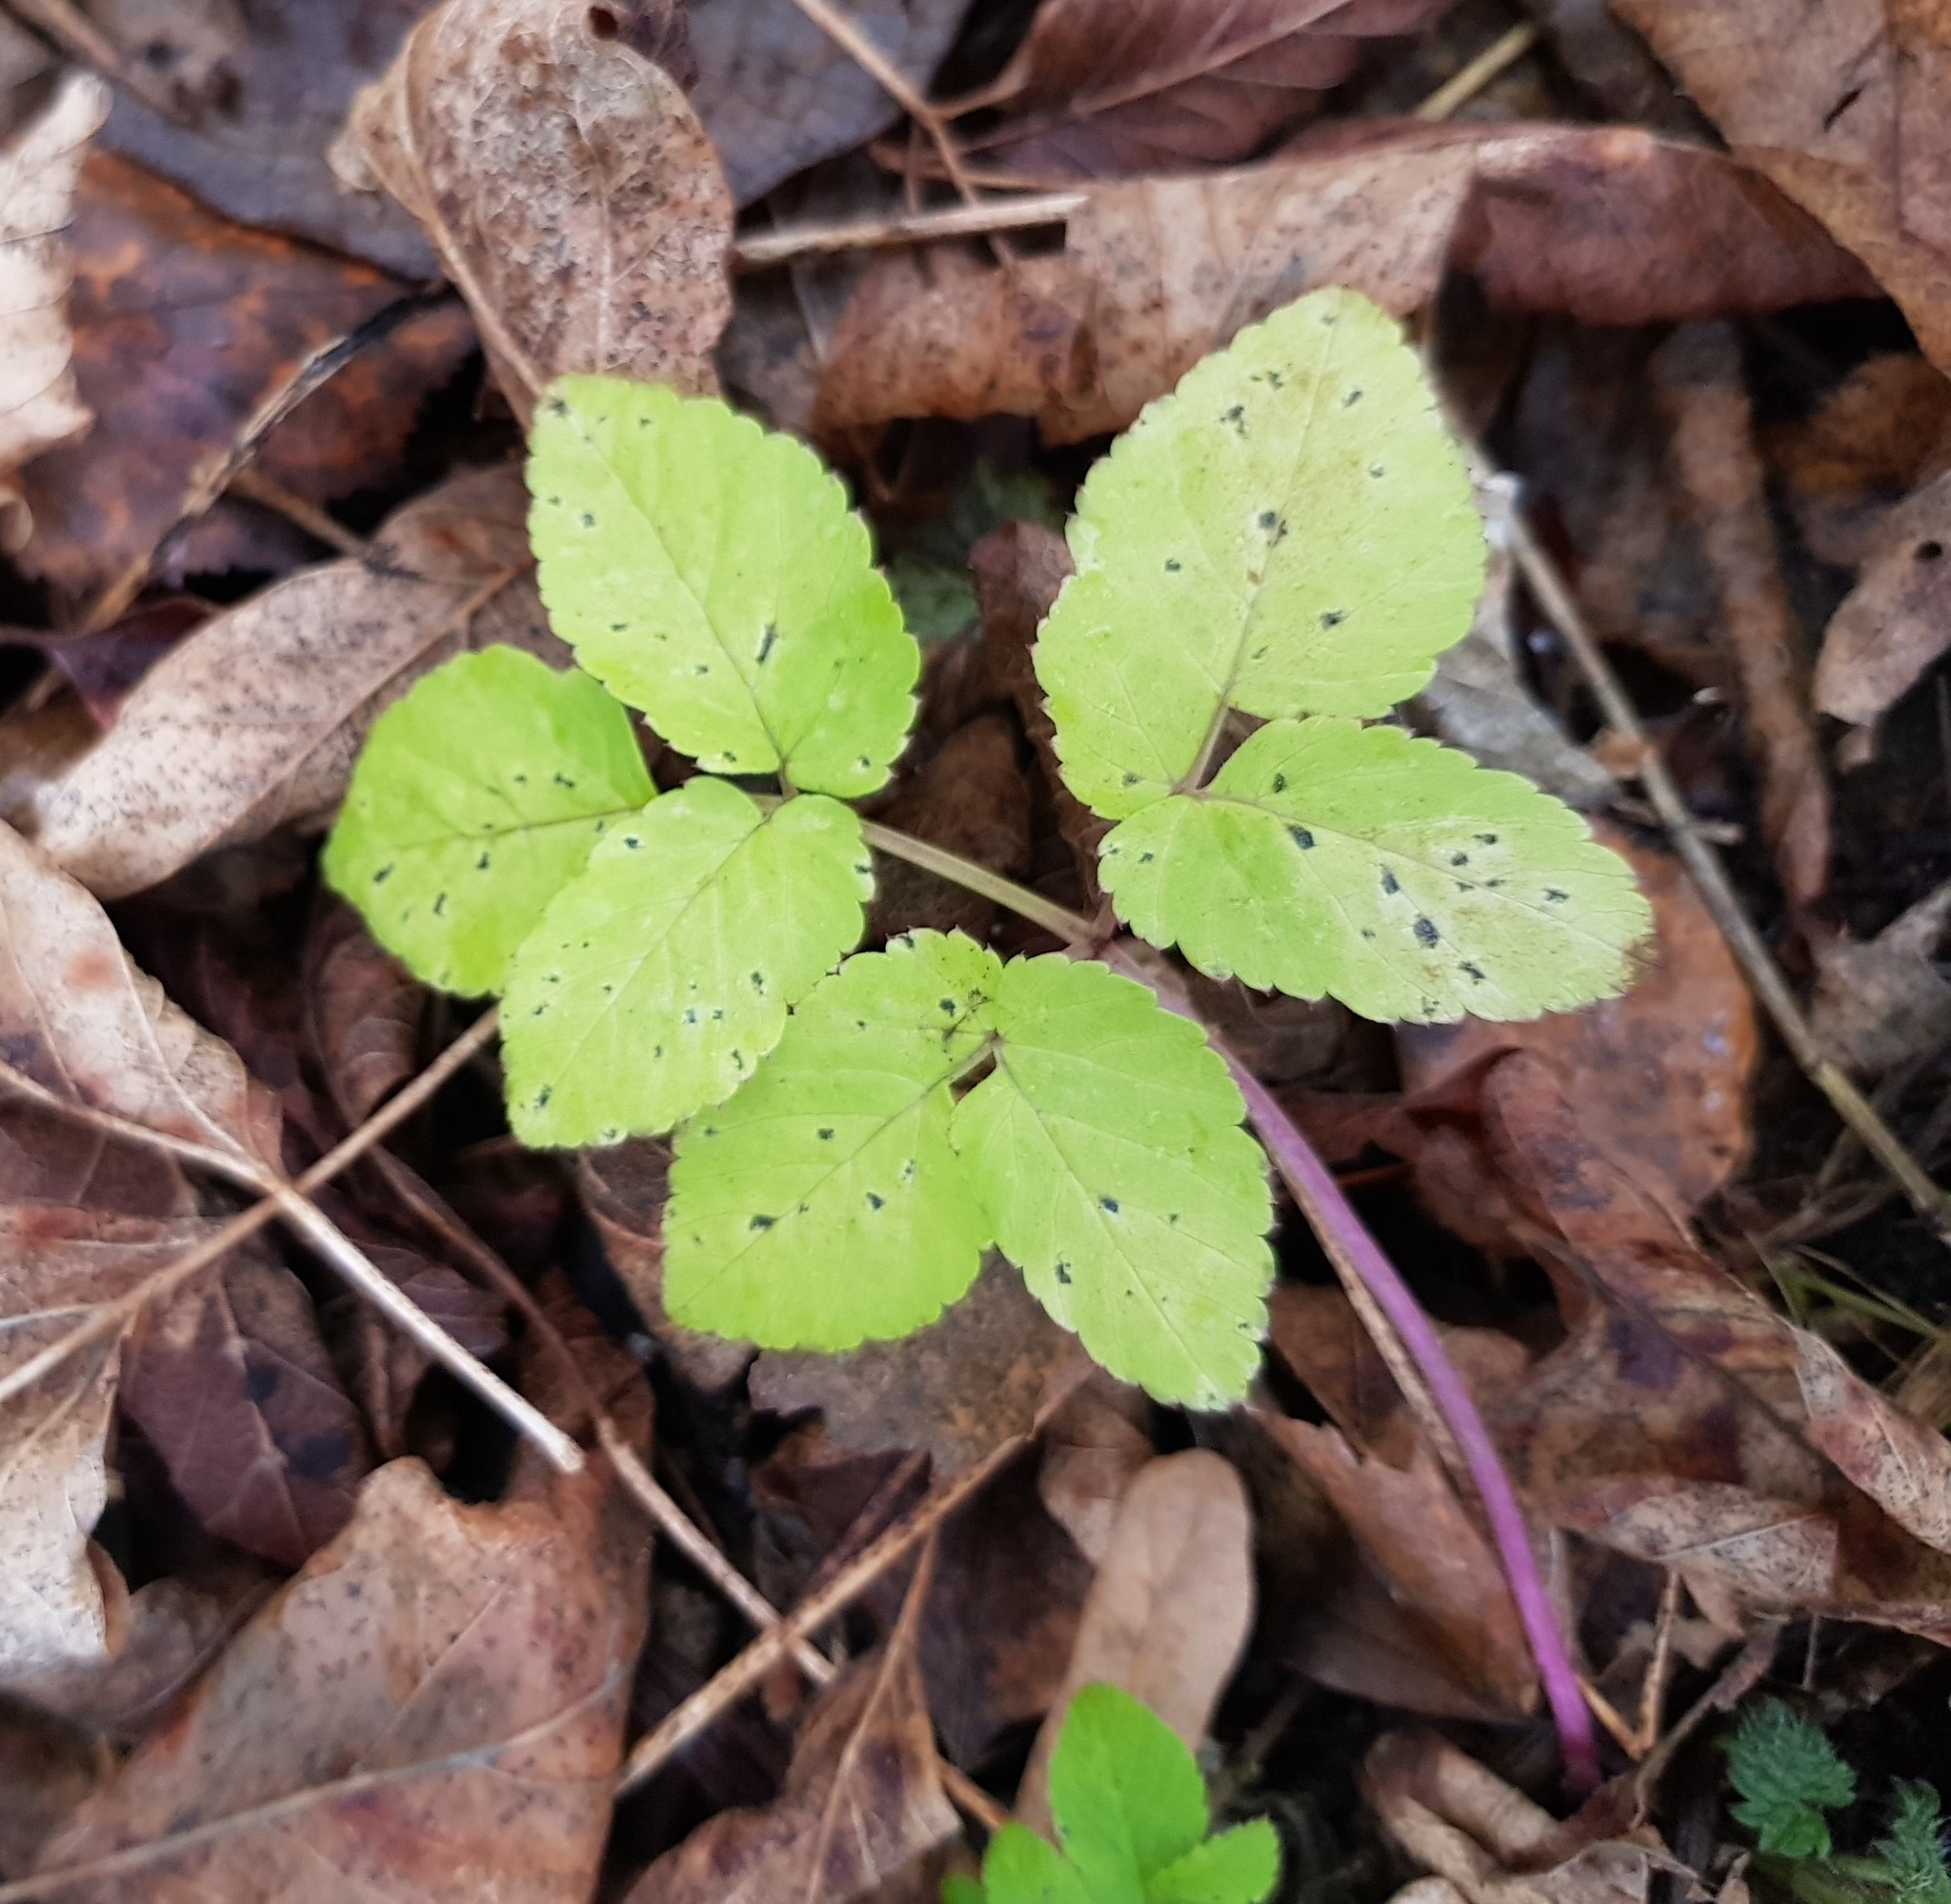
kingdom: Plantae
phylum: Tracheophyta
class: Magnoliopsida
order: Apiales
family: Apiaceae
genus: Aegopodium
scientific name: Aegopodium podagraria
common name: Ground-elder
